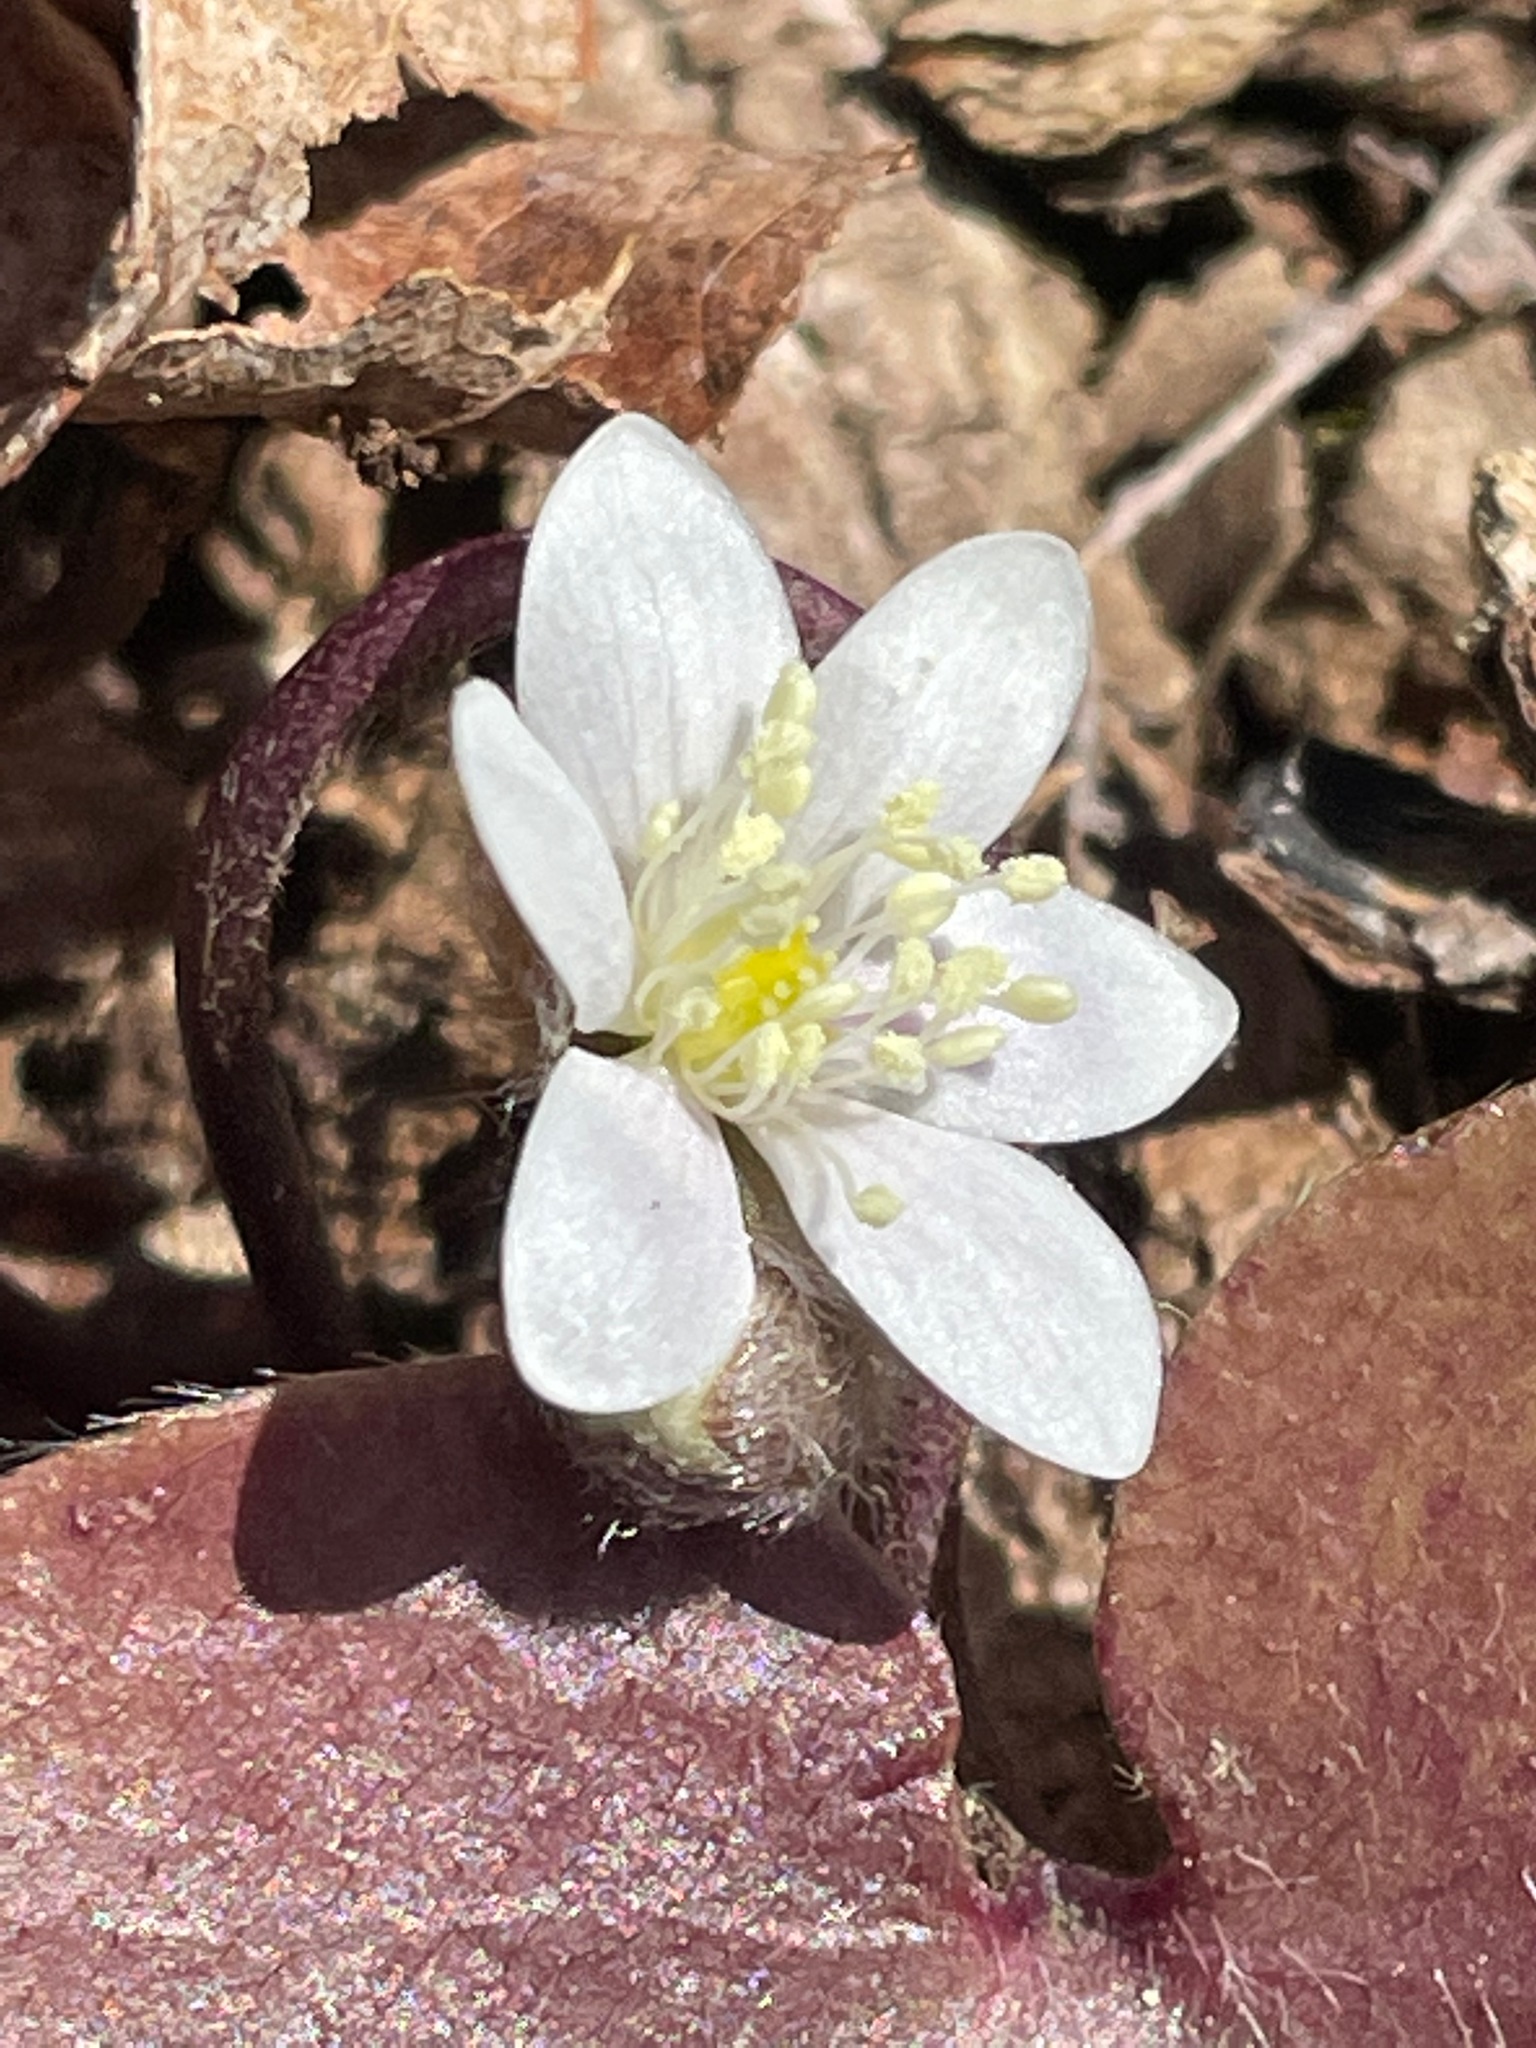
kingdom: Plantae
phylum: Tracheophyta
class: Magnoliopsida
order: Ranunculales
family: Ranunculaceae
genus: Hepatica
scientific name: Hepatica americana
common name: American hepatica
